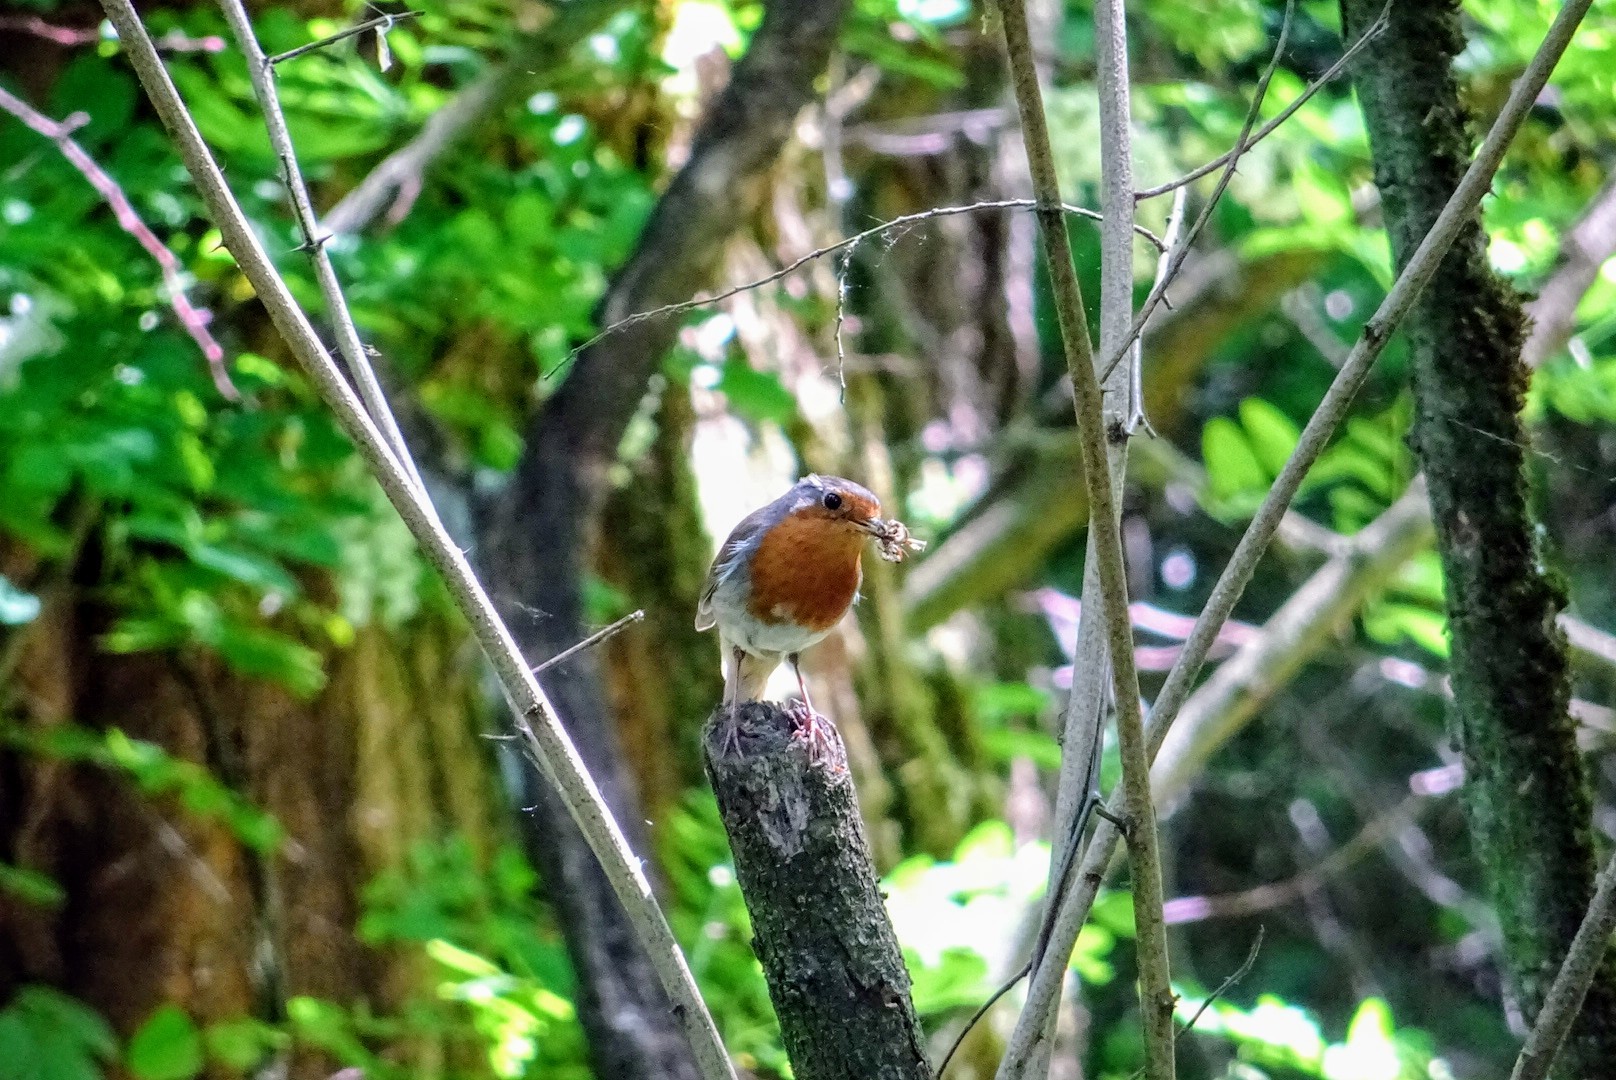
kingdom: Animalia
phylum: Chordata
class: Aves
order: Passeriformes
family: Muscicapidae
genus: Erithacus
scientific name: Erithacus rubecula
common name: European robin
